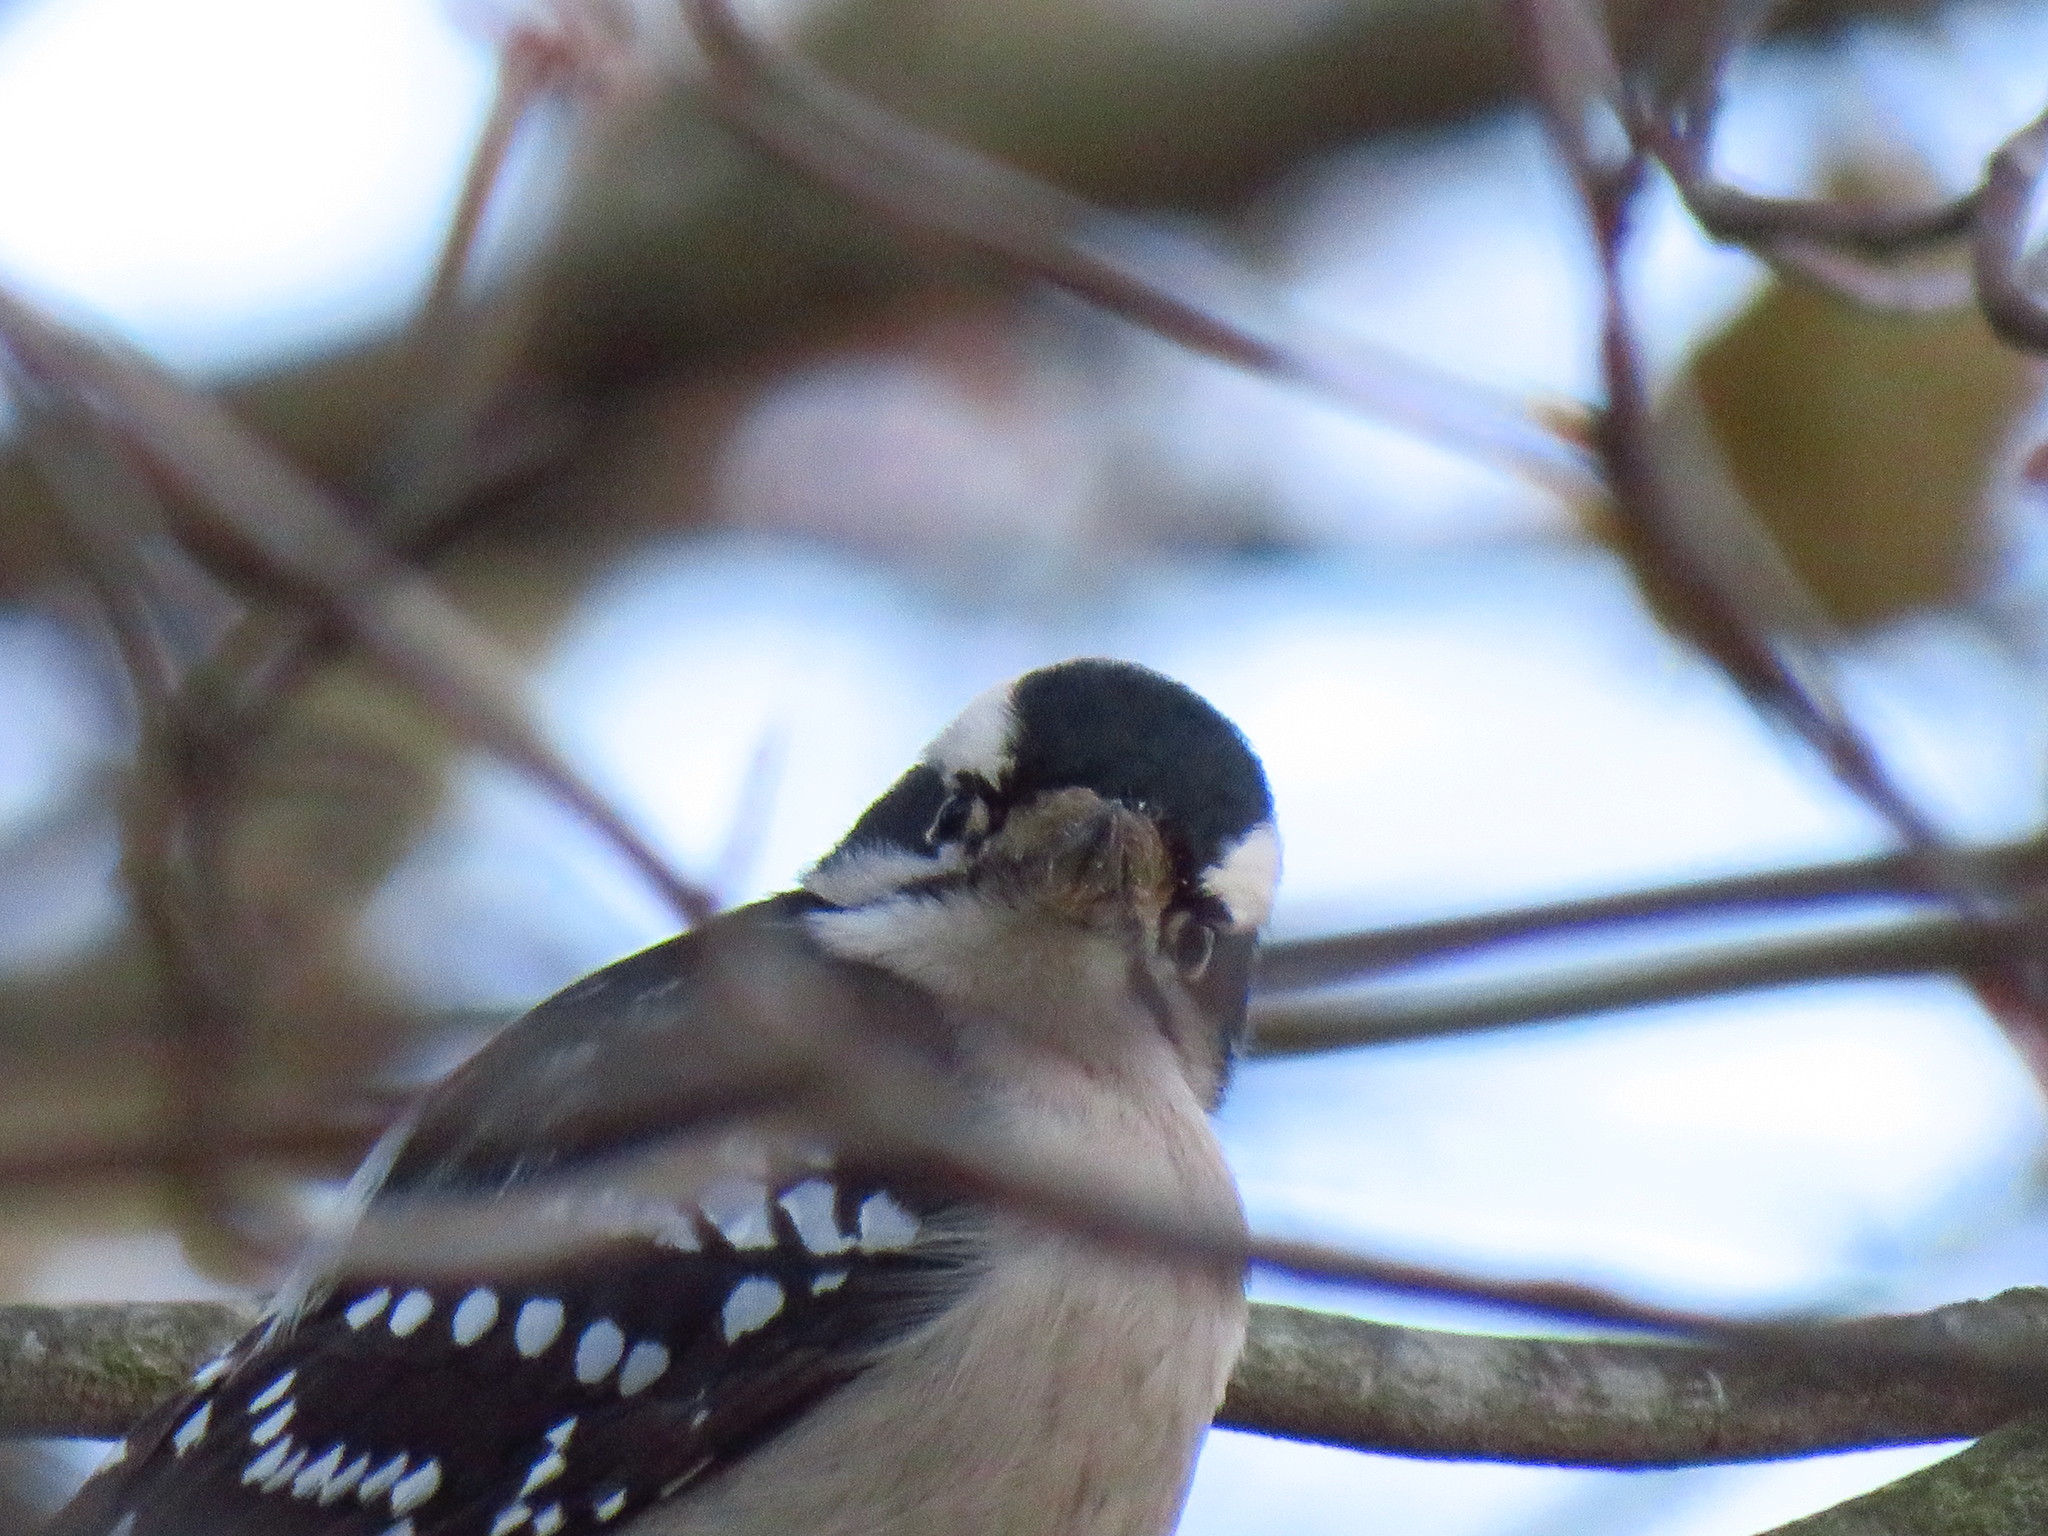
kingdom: Animalia
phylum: Chordata
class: Aves
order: Piciformes
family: Picidae
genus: Dryobates
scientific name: Dryobates pubescens
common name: Downy woodpecker
